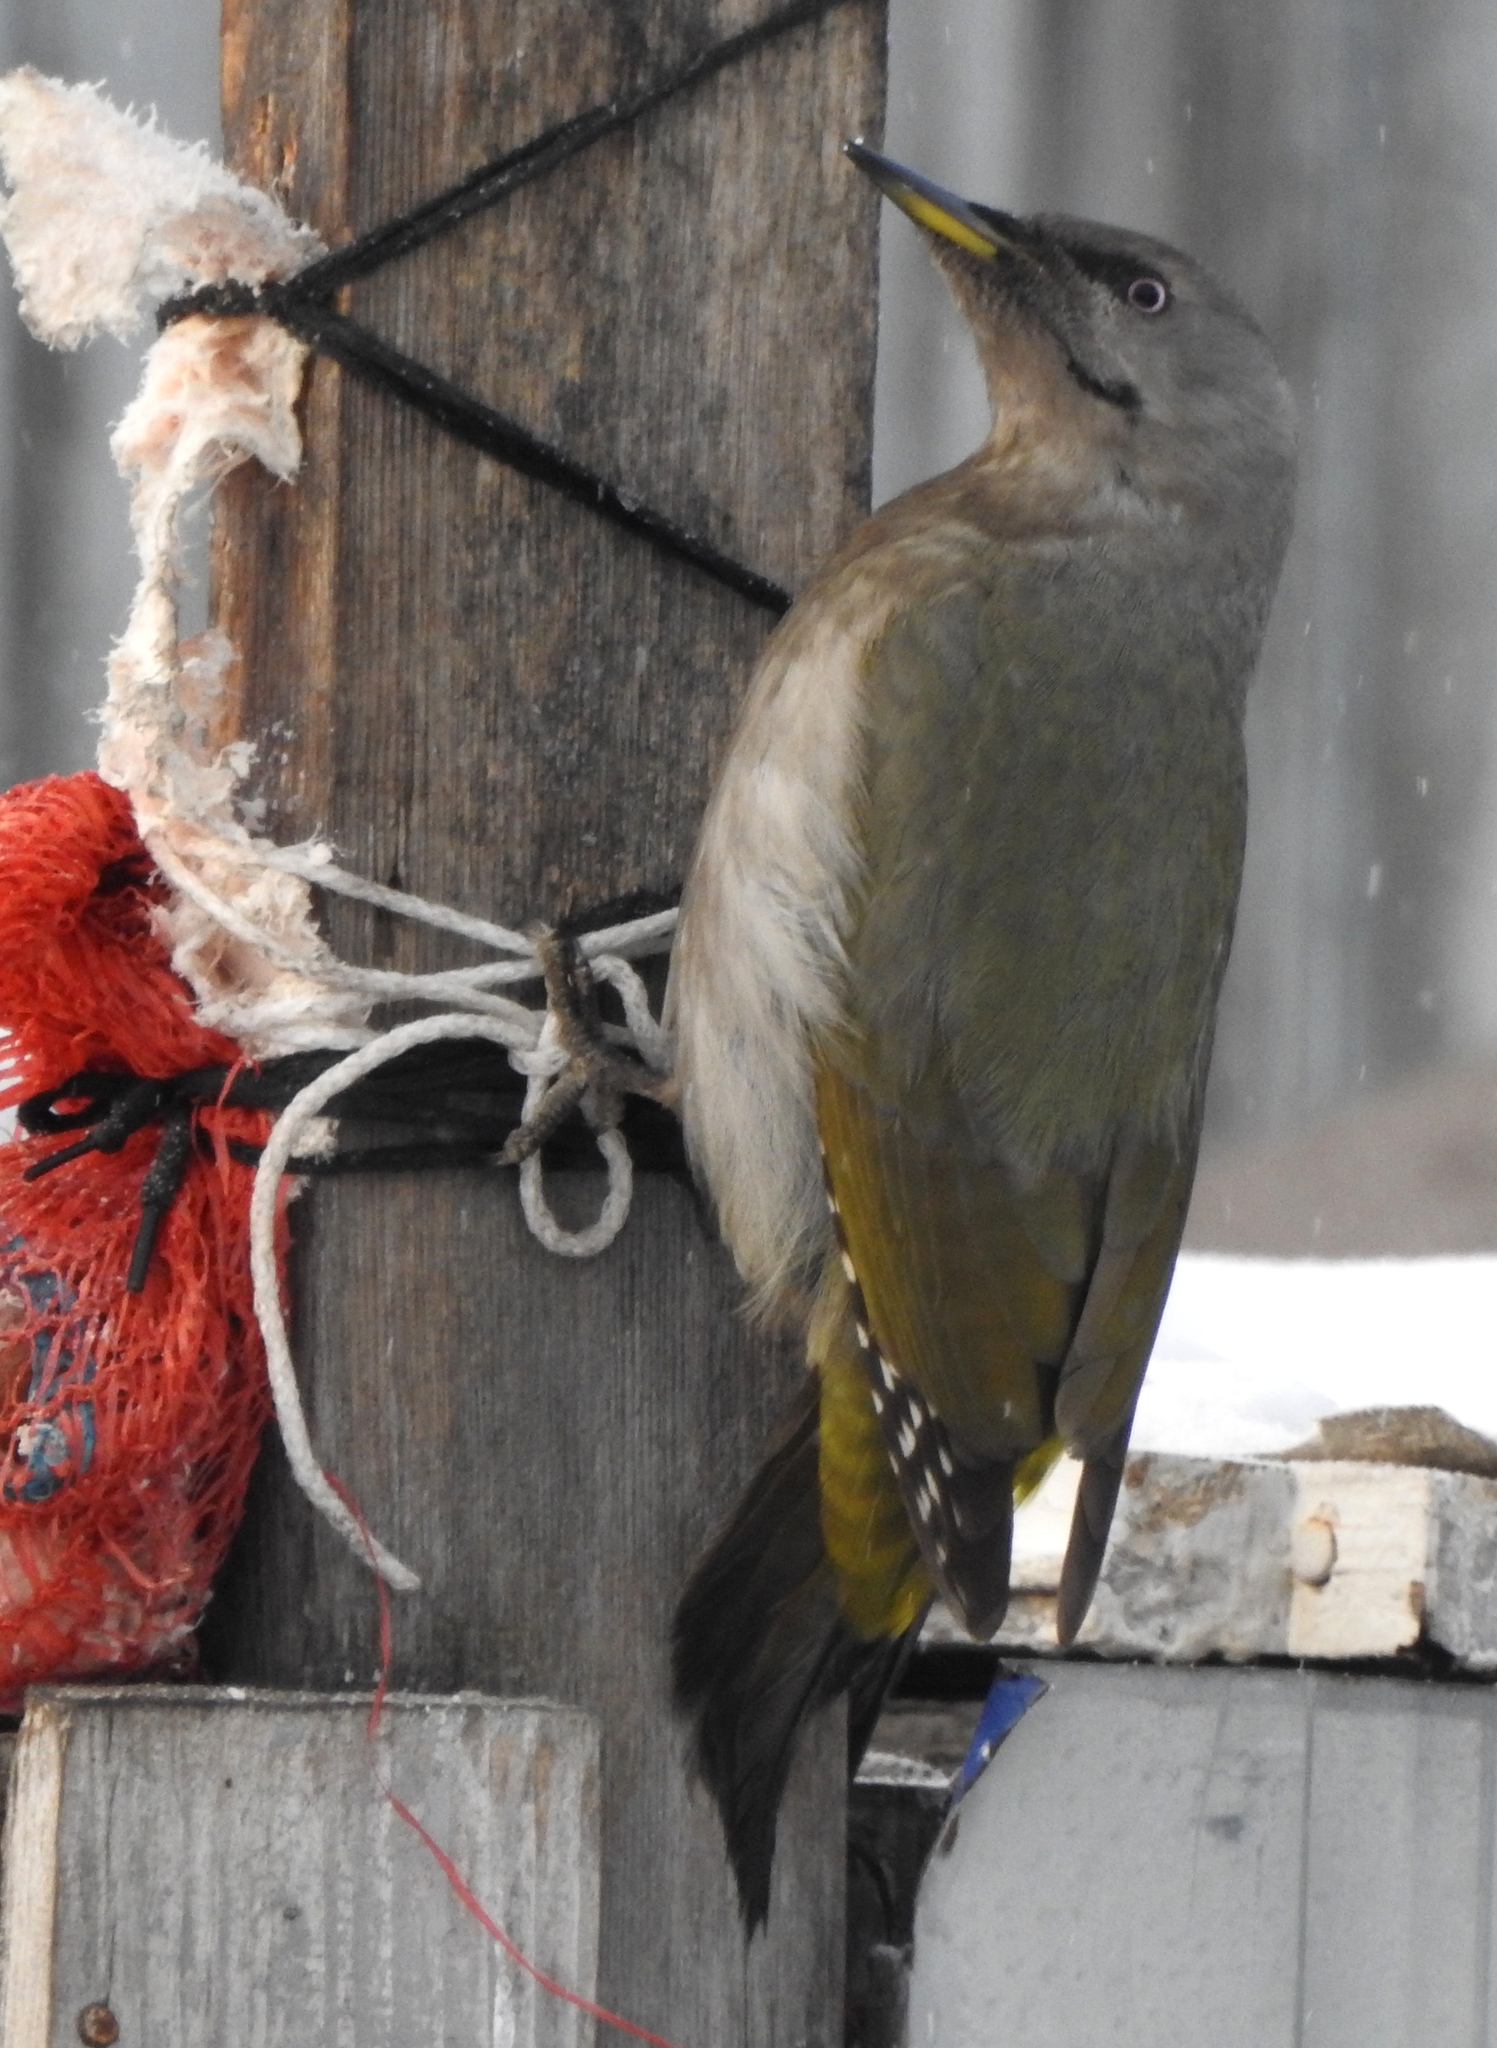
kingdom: Animalia
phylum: Chordata
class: Aves
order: Piciformes
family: Picidae
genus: Picus
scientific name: Picus canus
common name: Grey-headed woodpecker
